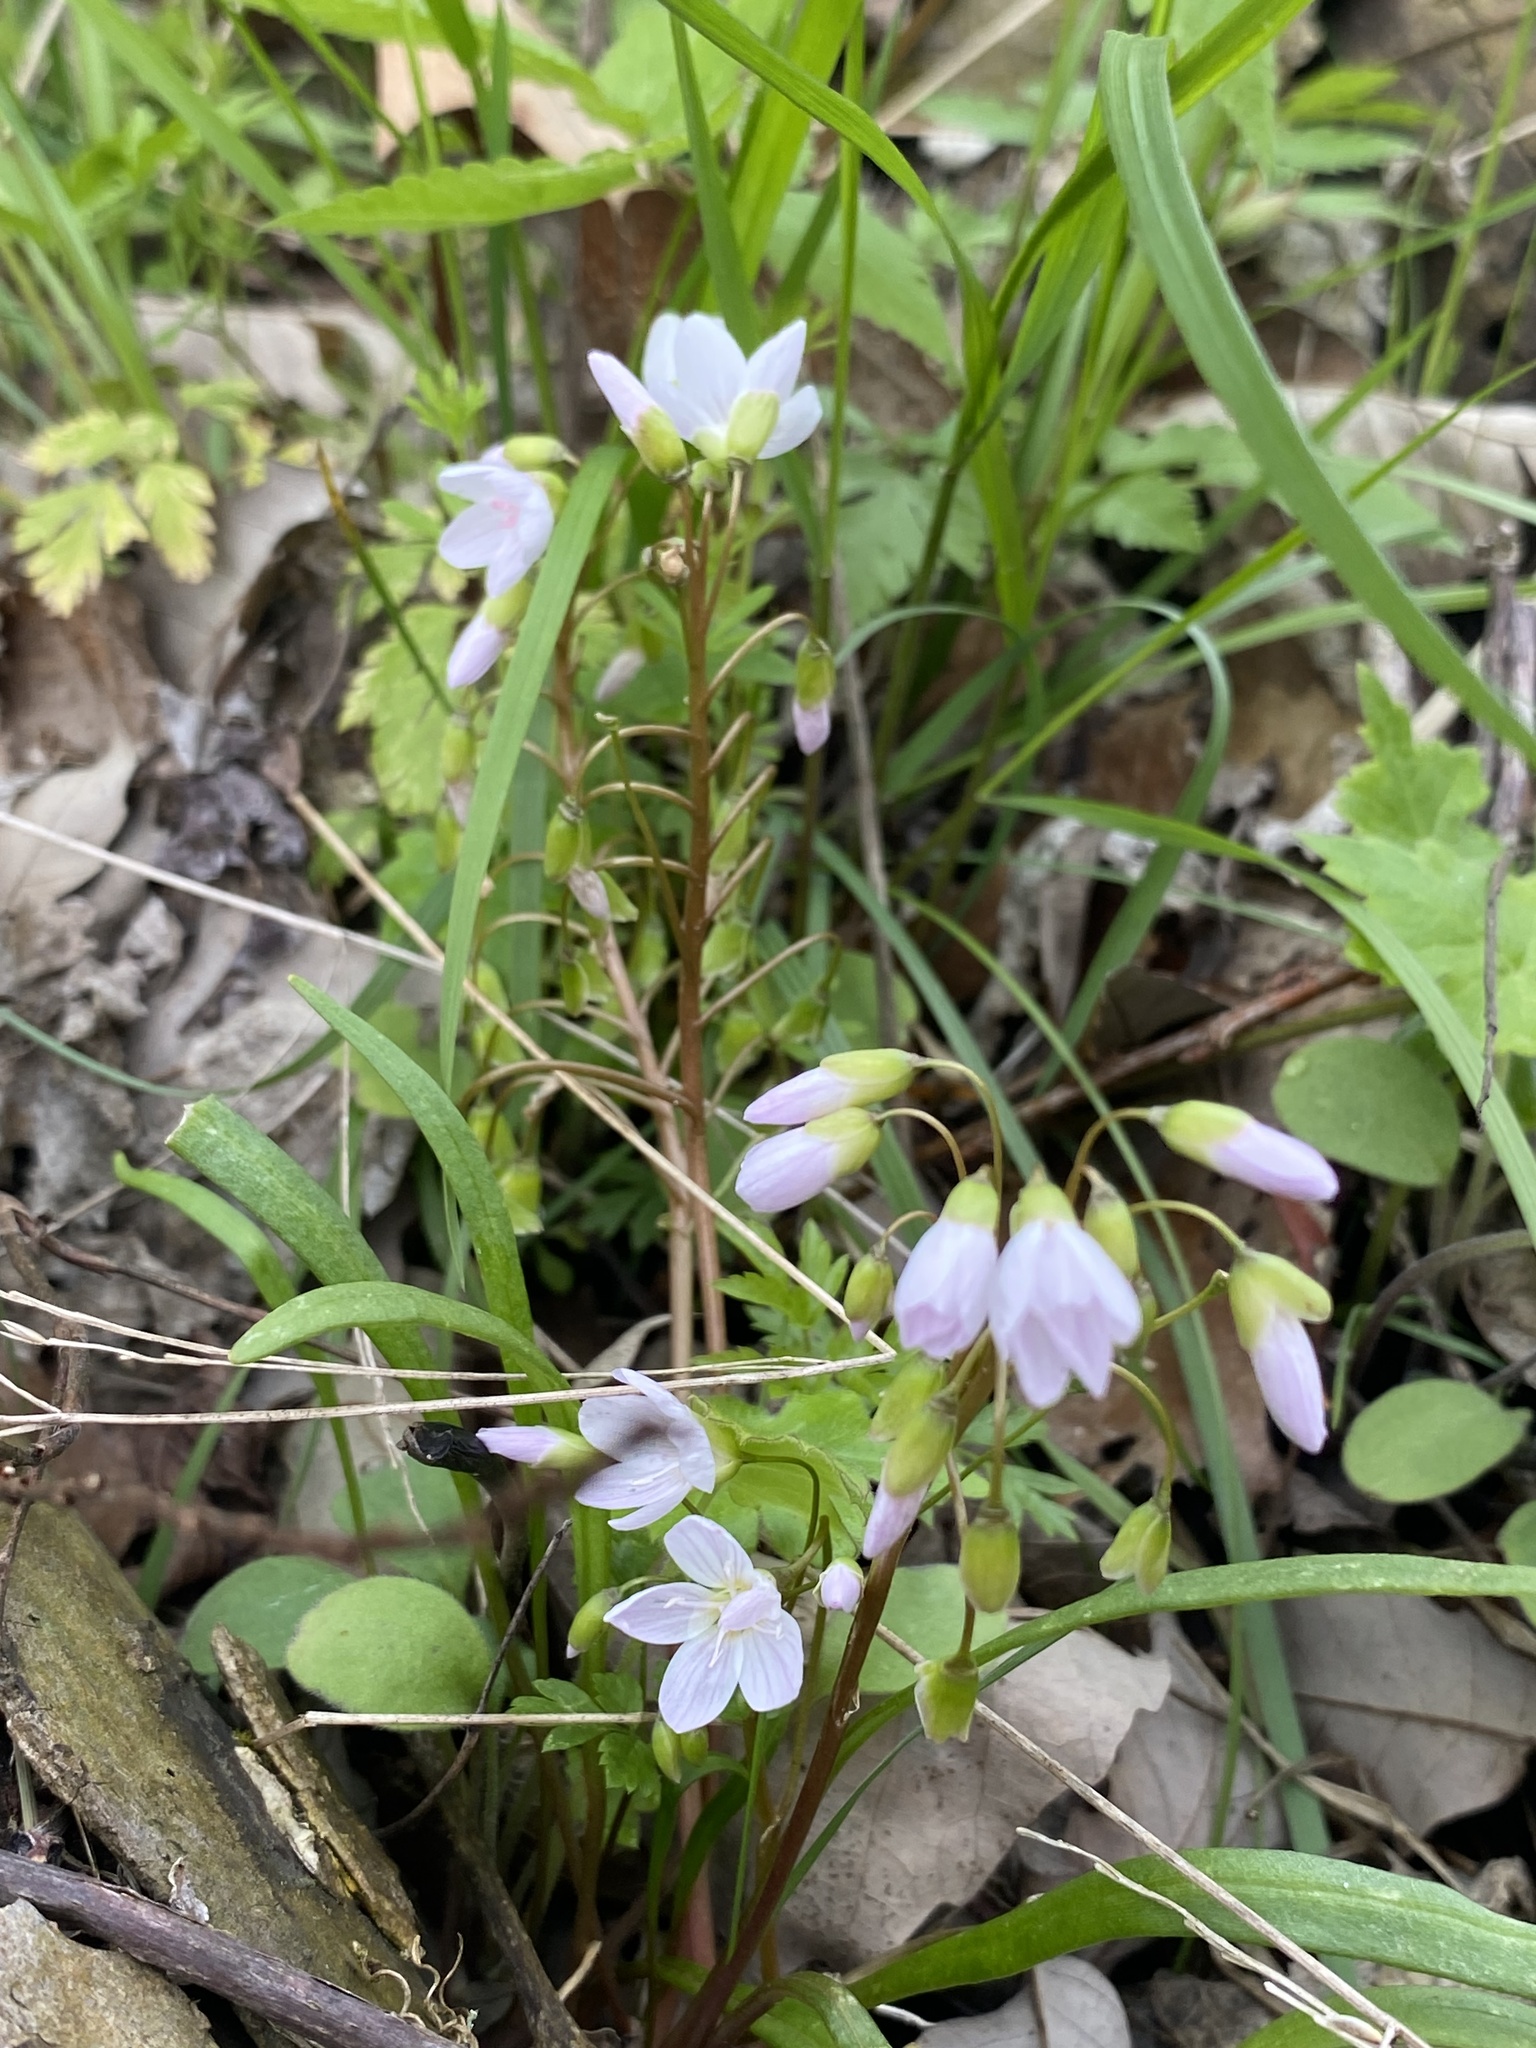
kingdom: Plantae
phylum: Tracheophyta
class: Magnoliopsida
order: Caryophyllales
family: Montiaceae
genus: Claytonia
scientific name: Claytonia virginica
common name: Virginia springbeauty
